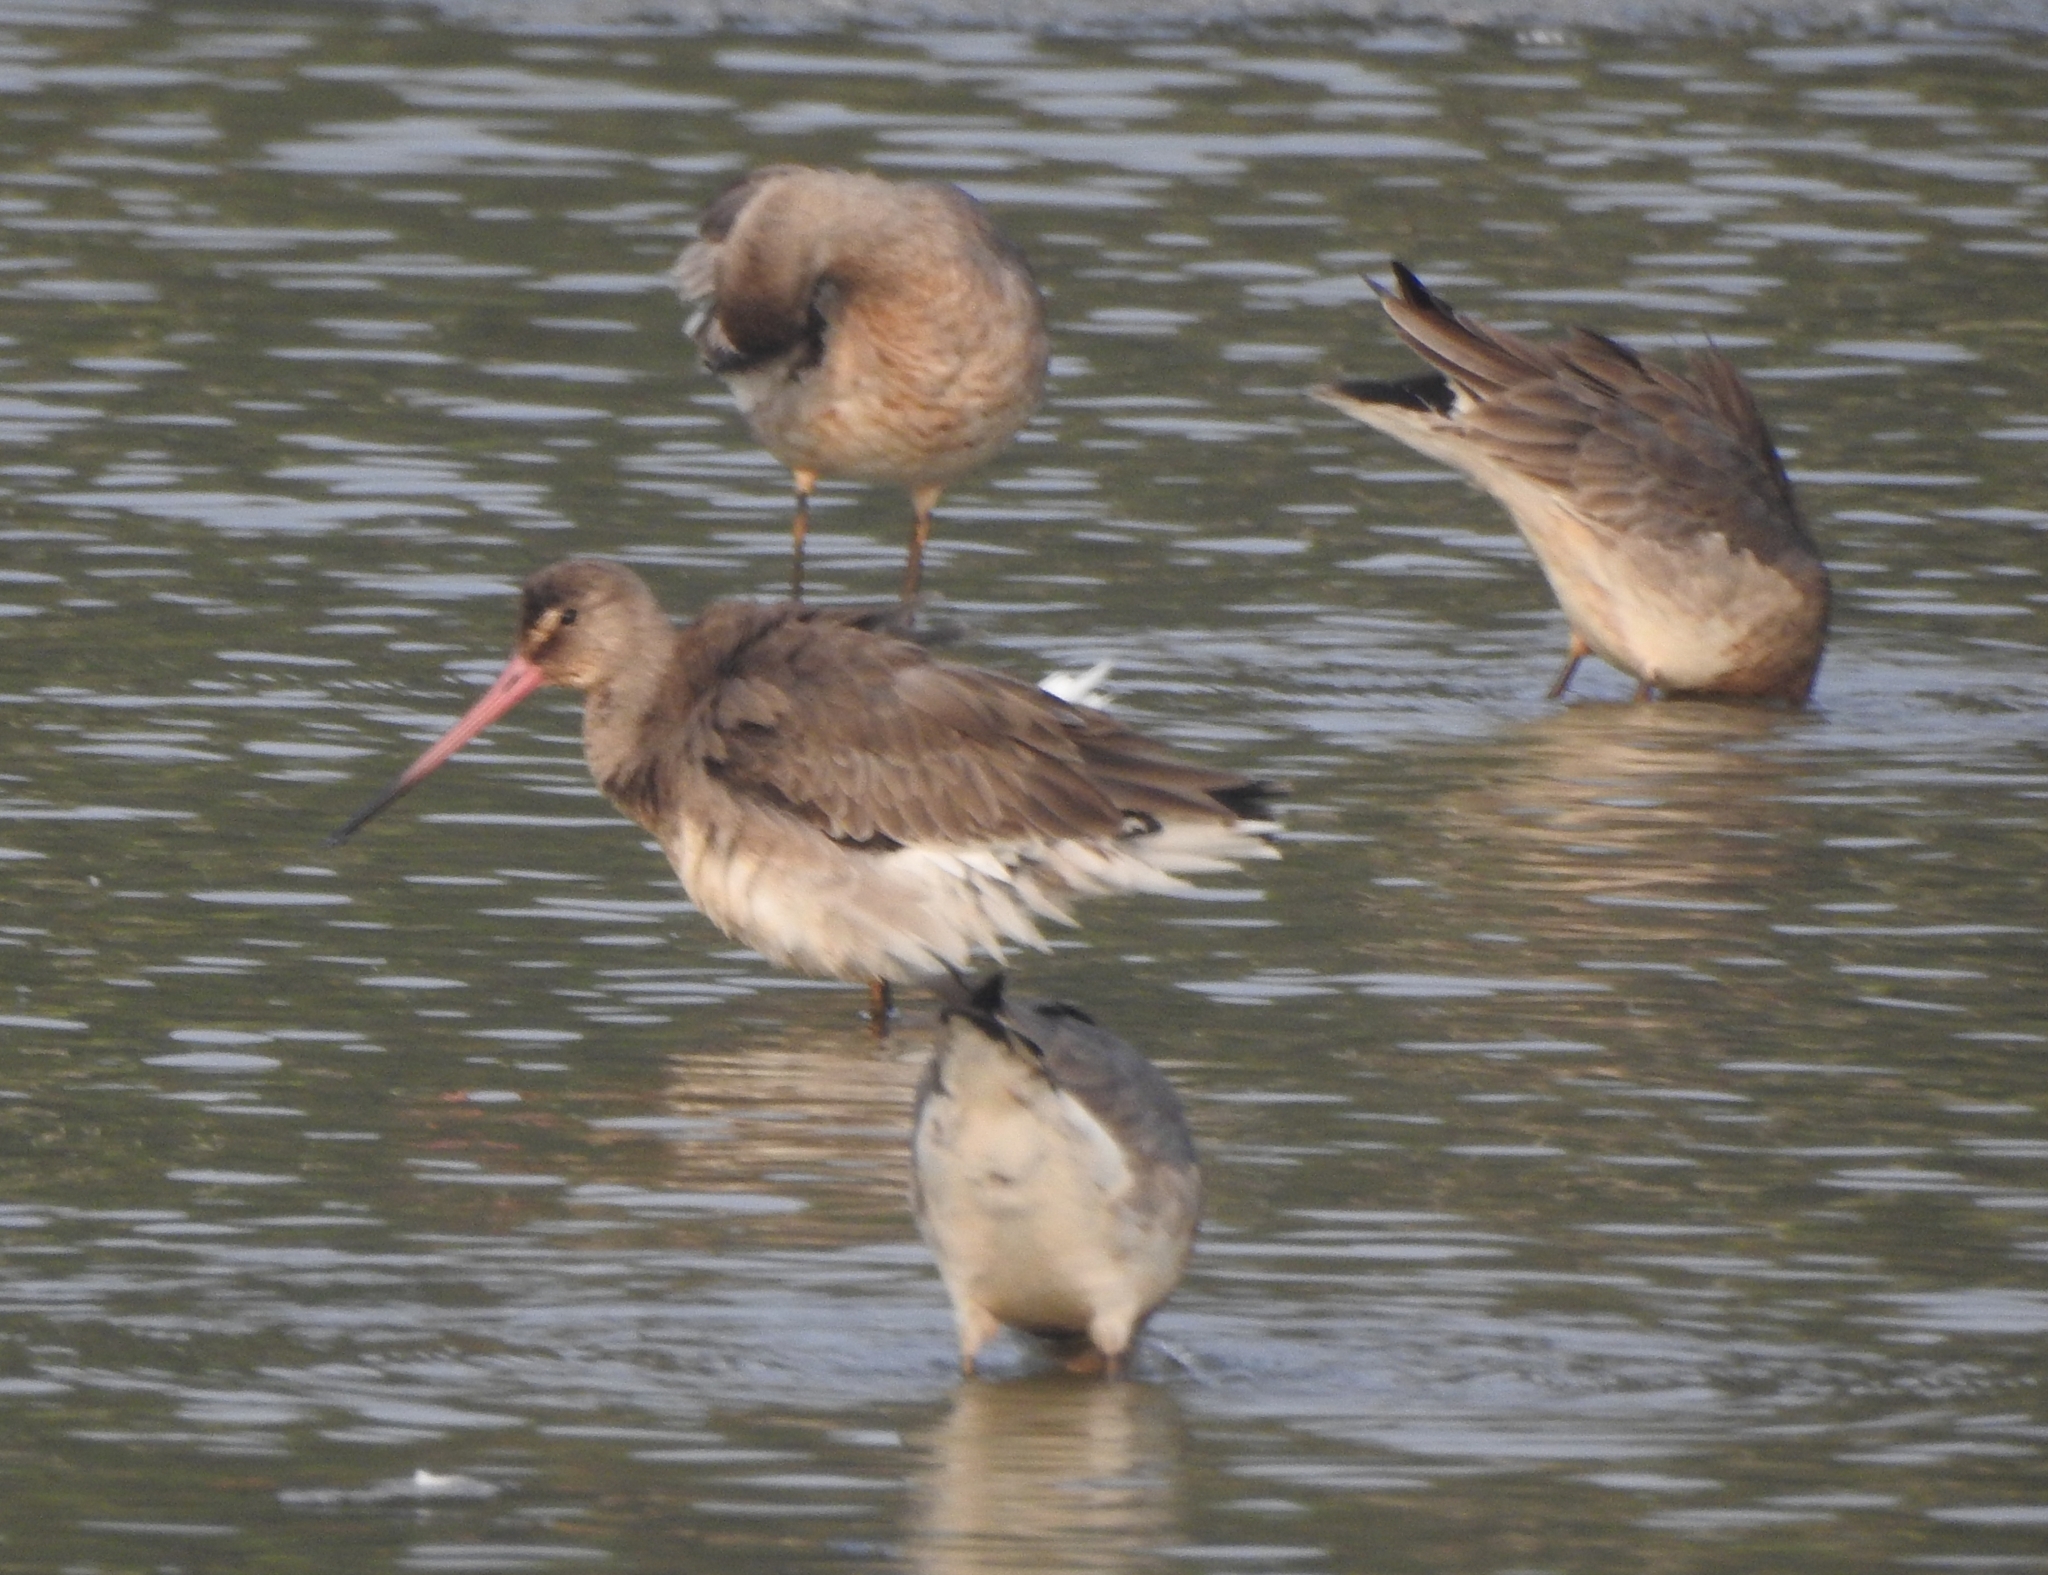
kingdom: Animalia
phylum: Chordata
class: Aves
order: Charadriiformes
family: Scolopacidae
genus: Limosa
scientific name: Limosa limosa
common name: Black-tailed godwit
